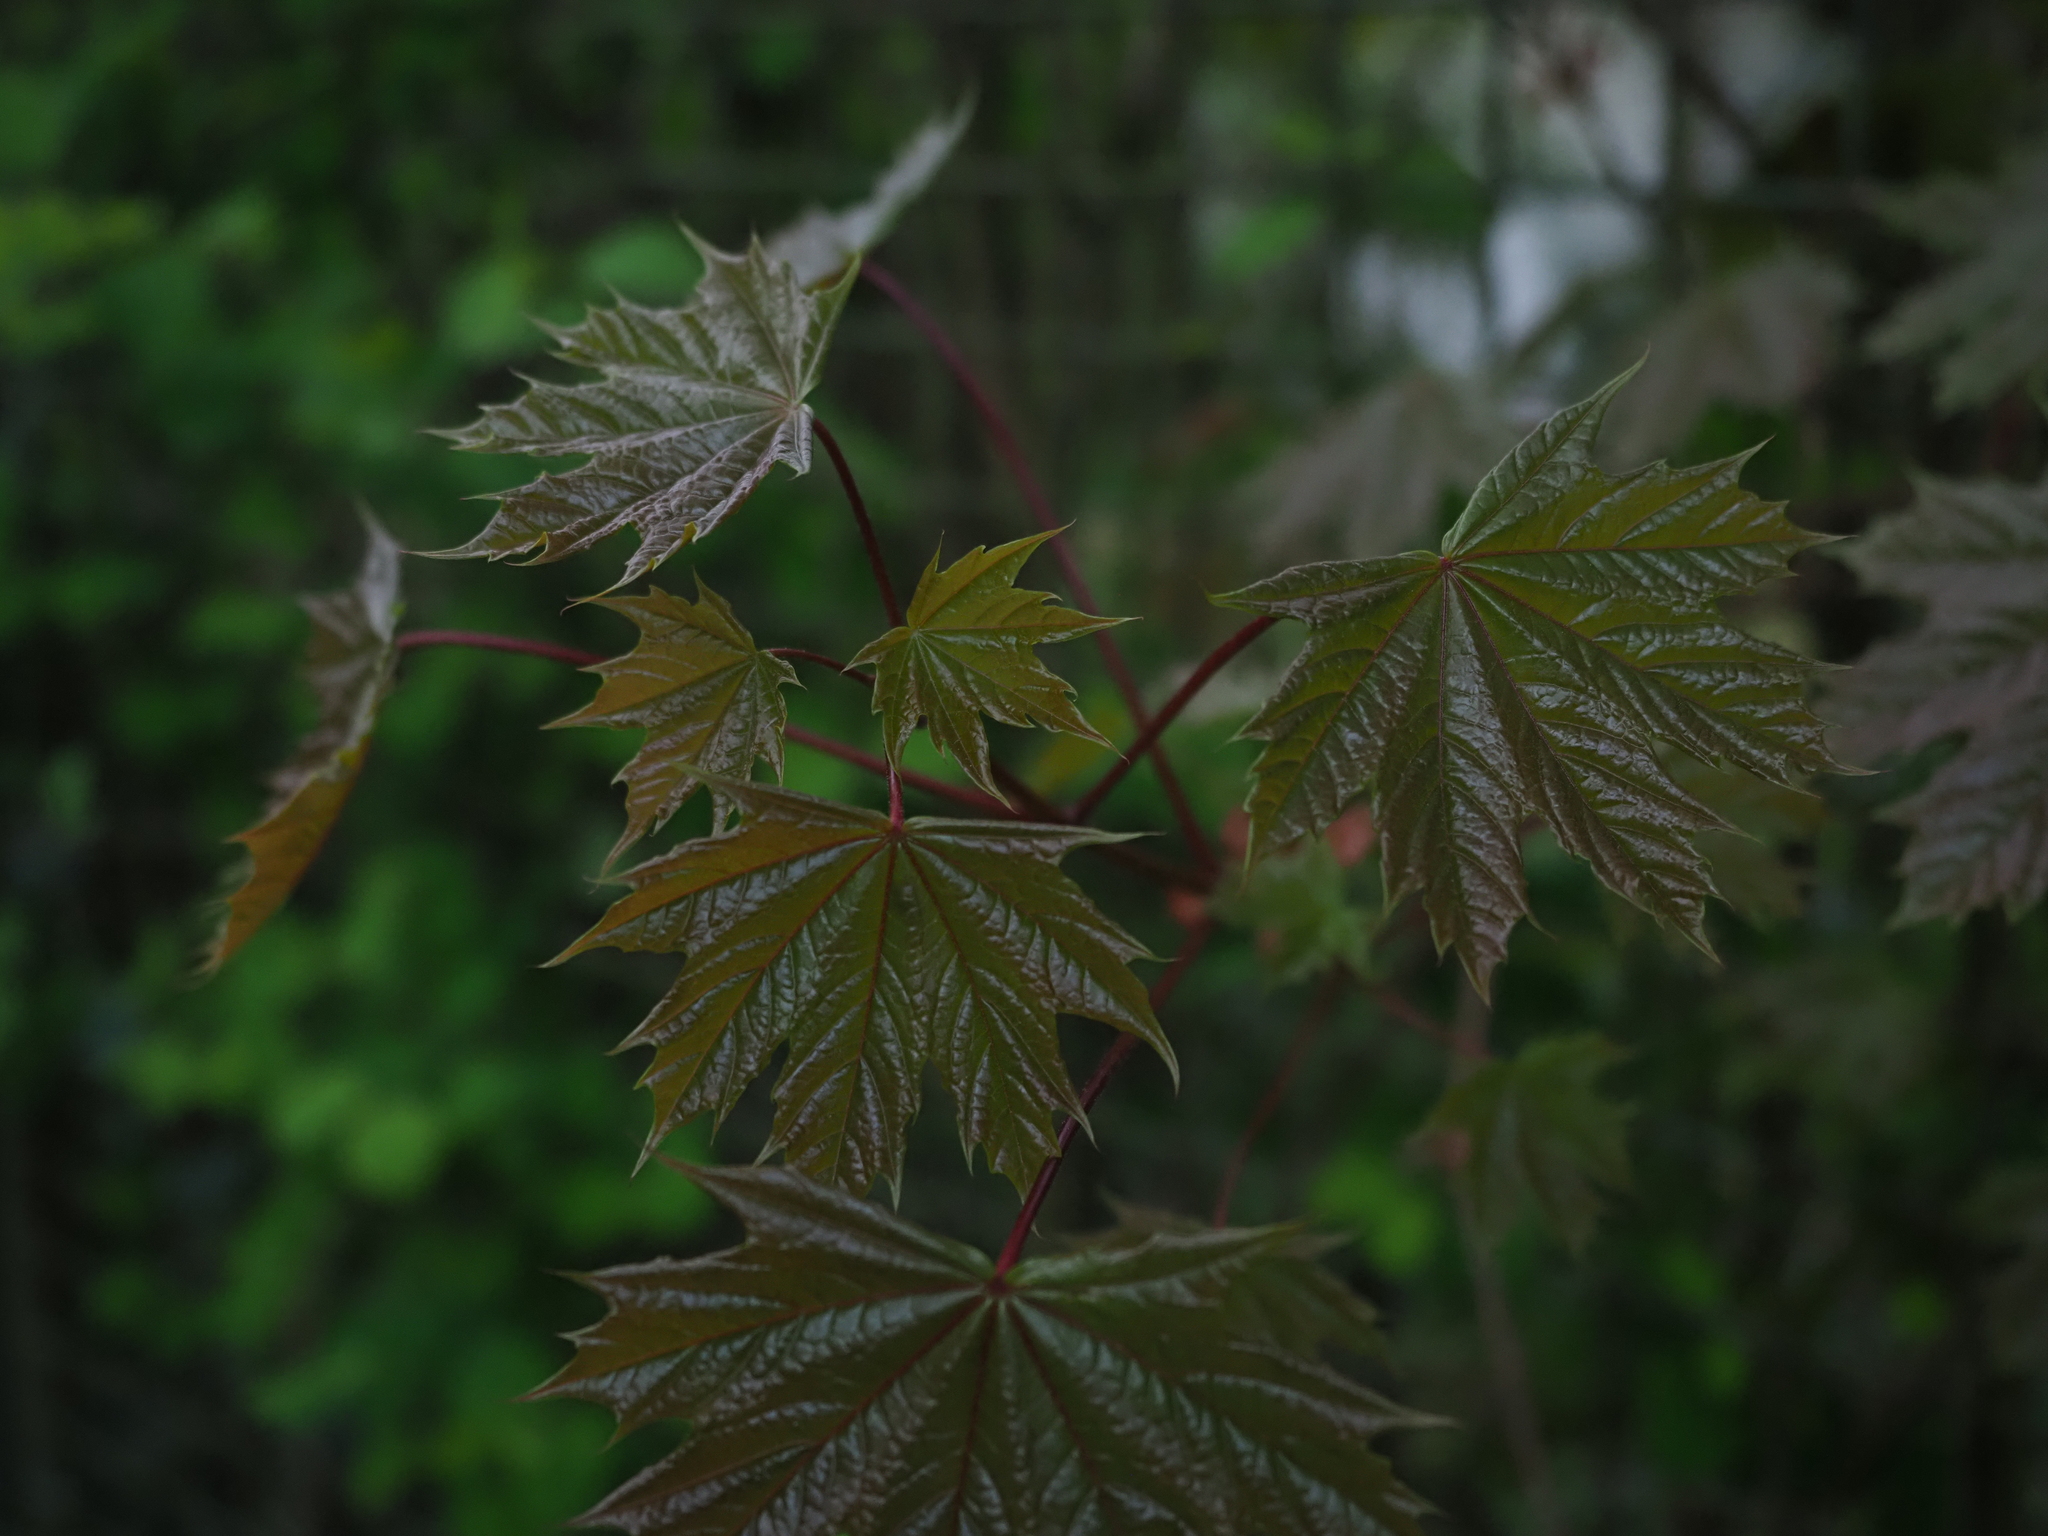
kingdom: Plantae
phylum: Tracheophyta
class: Magnoliopsida
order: Sapindales
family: Sapindaceae
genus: Acer
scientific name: Acer platanoides
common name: Norway maple
